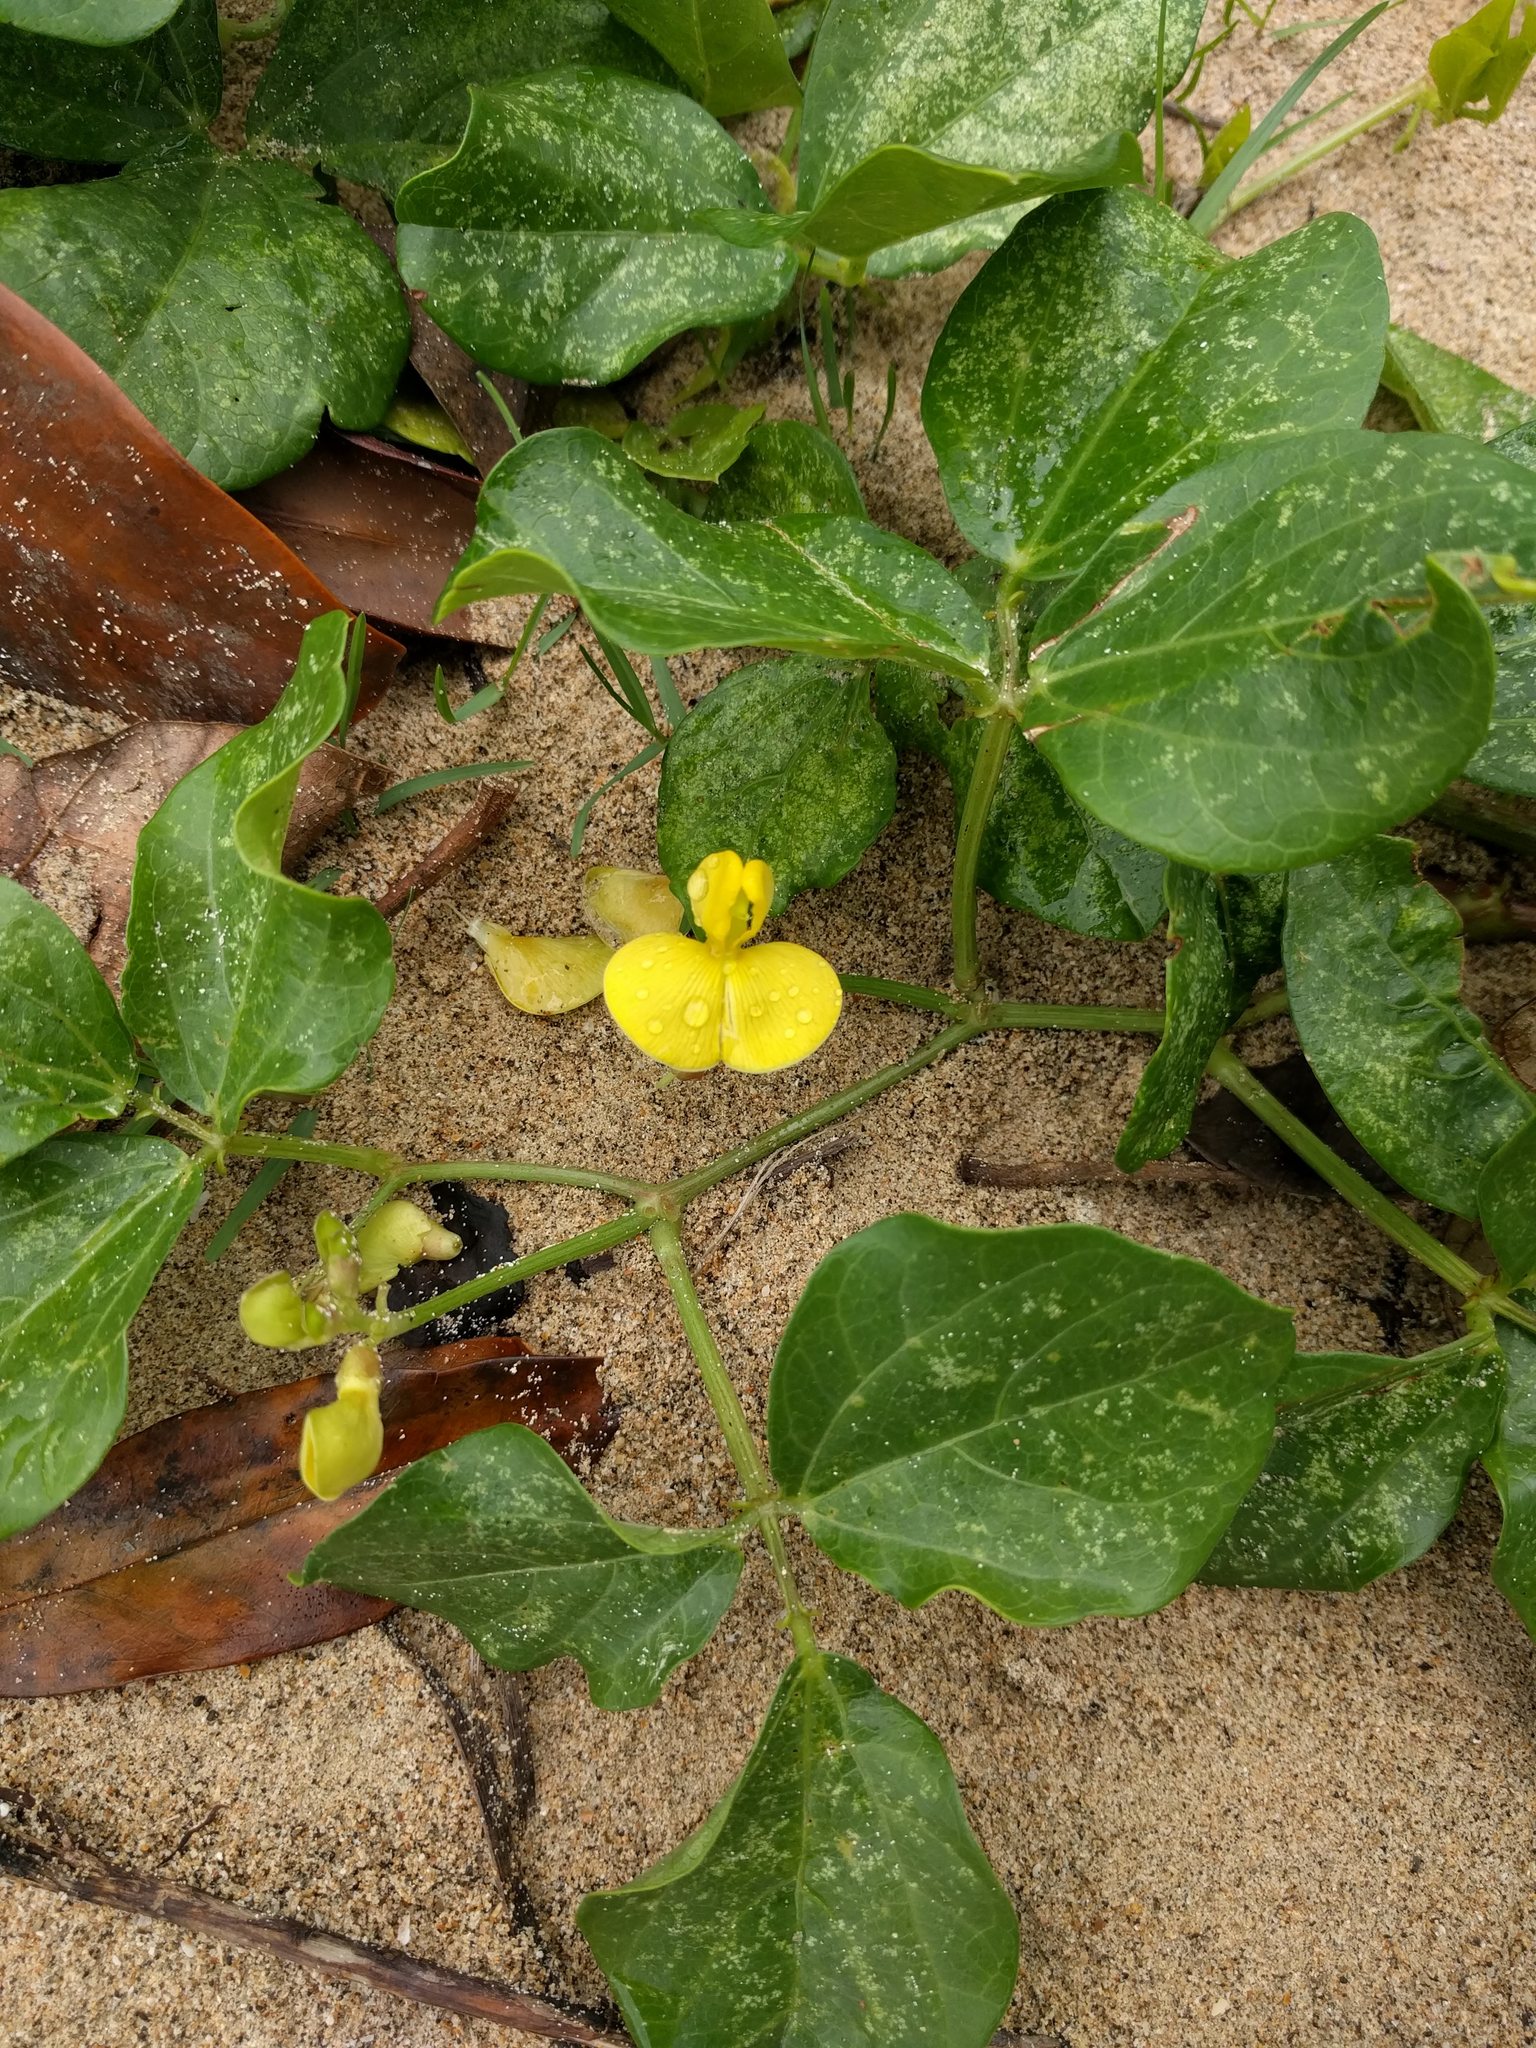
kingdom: Plantae
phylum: Tracheophyta
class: Magnoliopsida
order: Fabales
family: Fabaceae
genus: Vigna
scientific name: Vigna marina
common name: Dune-bean
